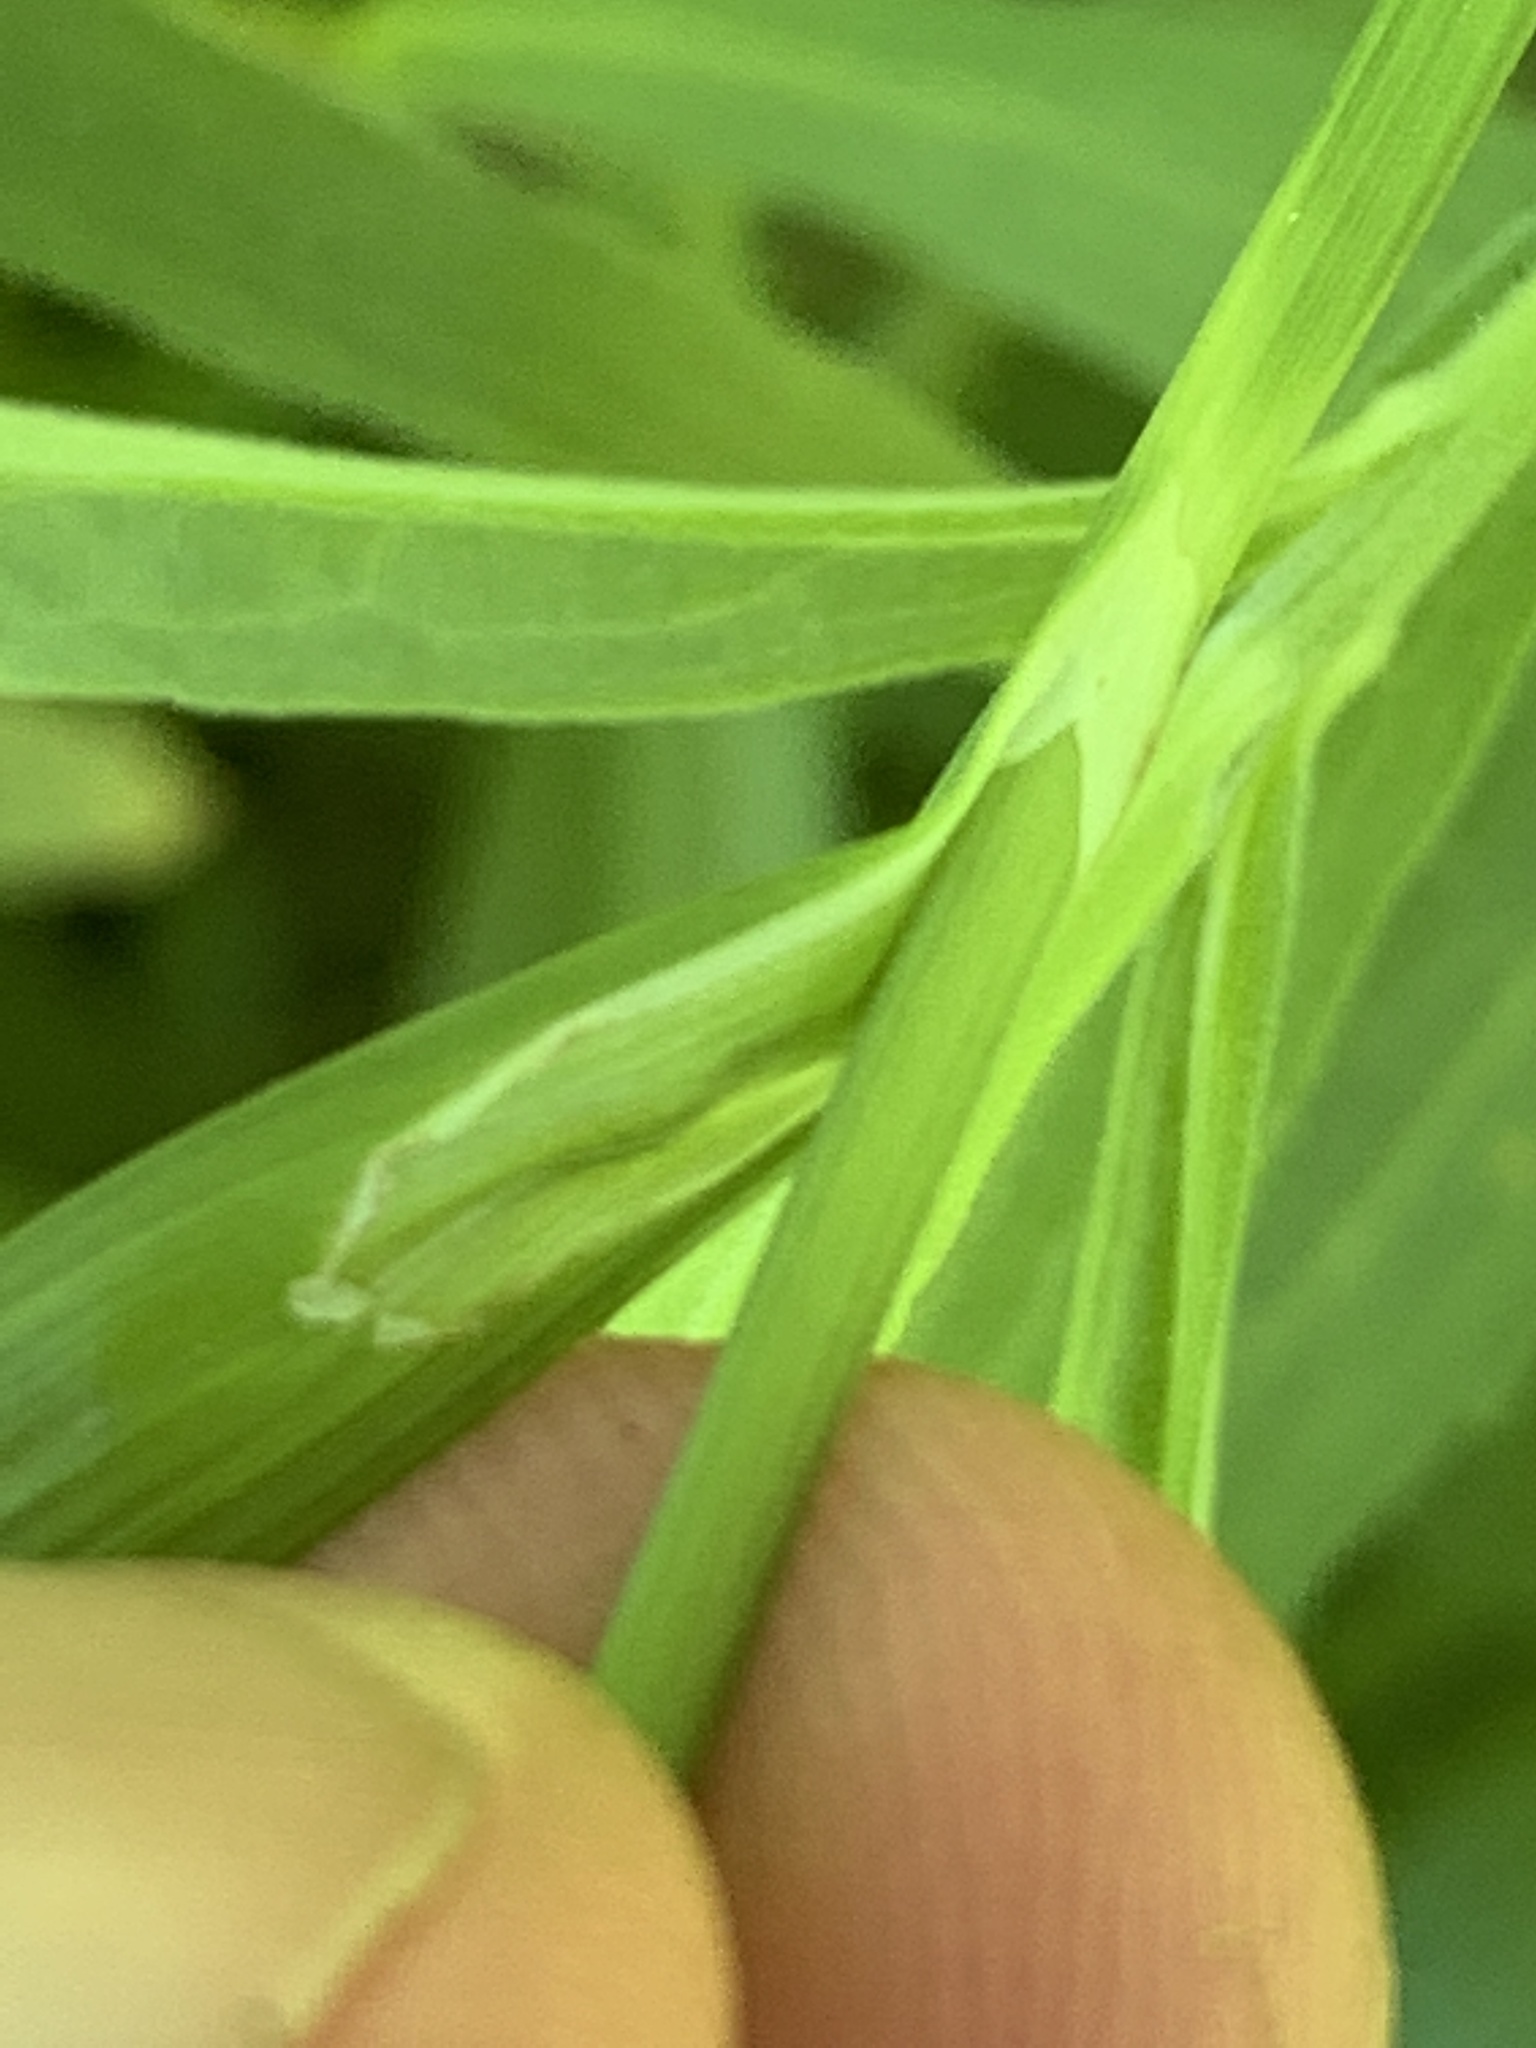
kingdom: Plantae
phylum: Tracheophyta
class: Liliopsida
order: Poales
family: Cyperaceae
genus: Carex
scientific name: Carex shortiana
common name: Short's sedge
